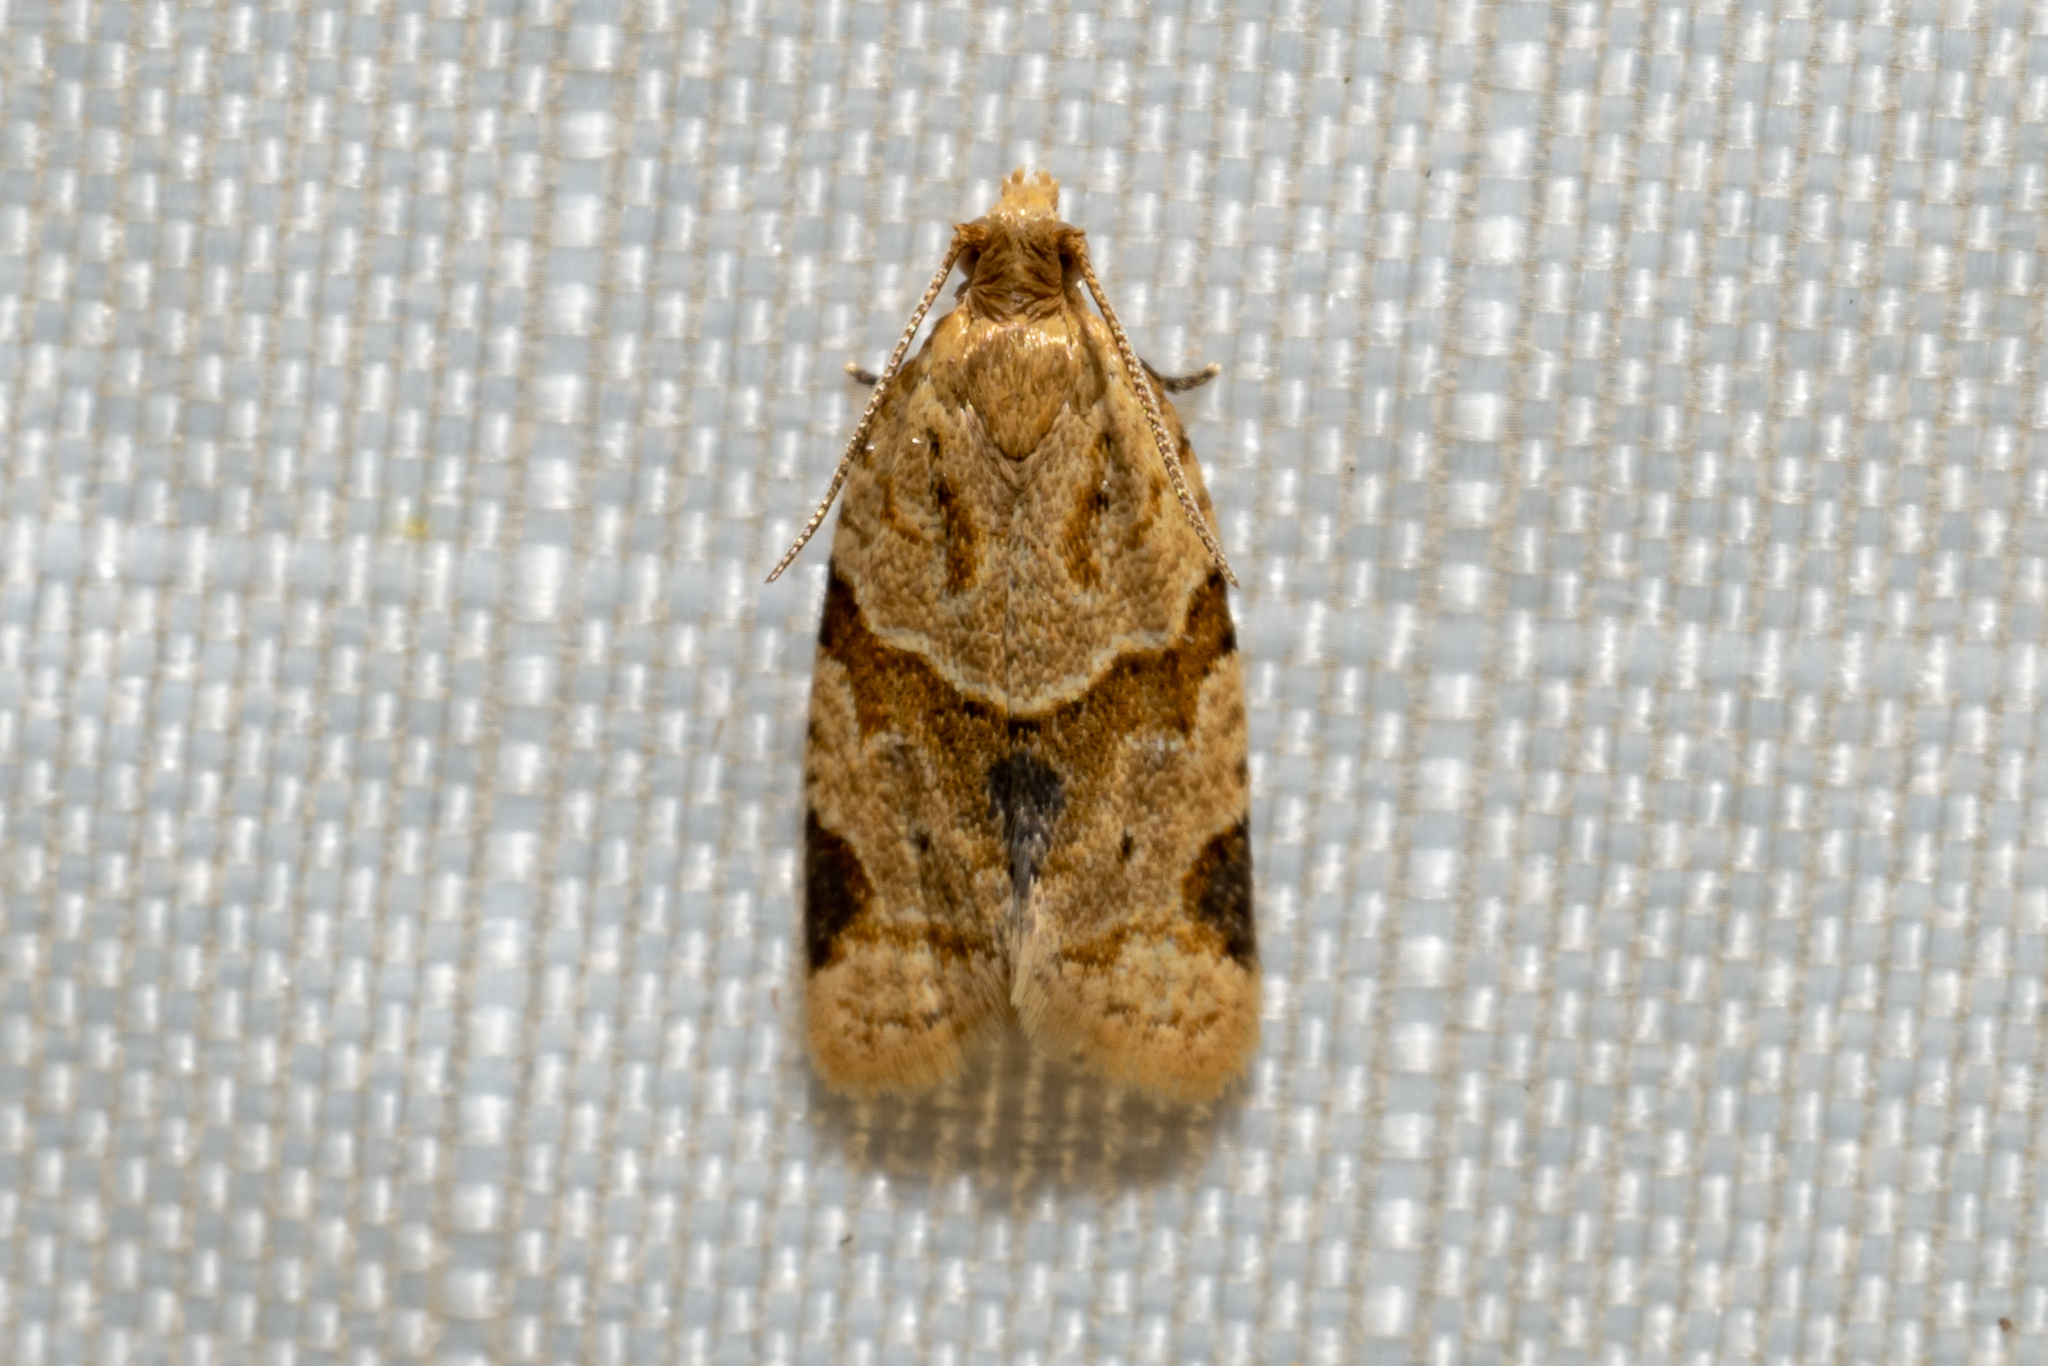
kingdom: Animalia
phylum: Arthropoda
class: Insecta
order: Lepidoptera
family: Tortricidae
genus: Clepsis
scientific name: Clepsis peritana
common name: Garden tortrix
